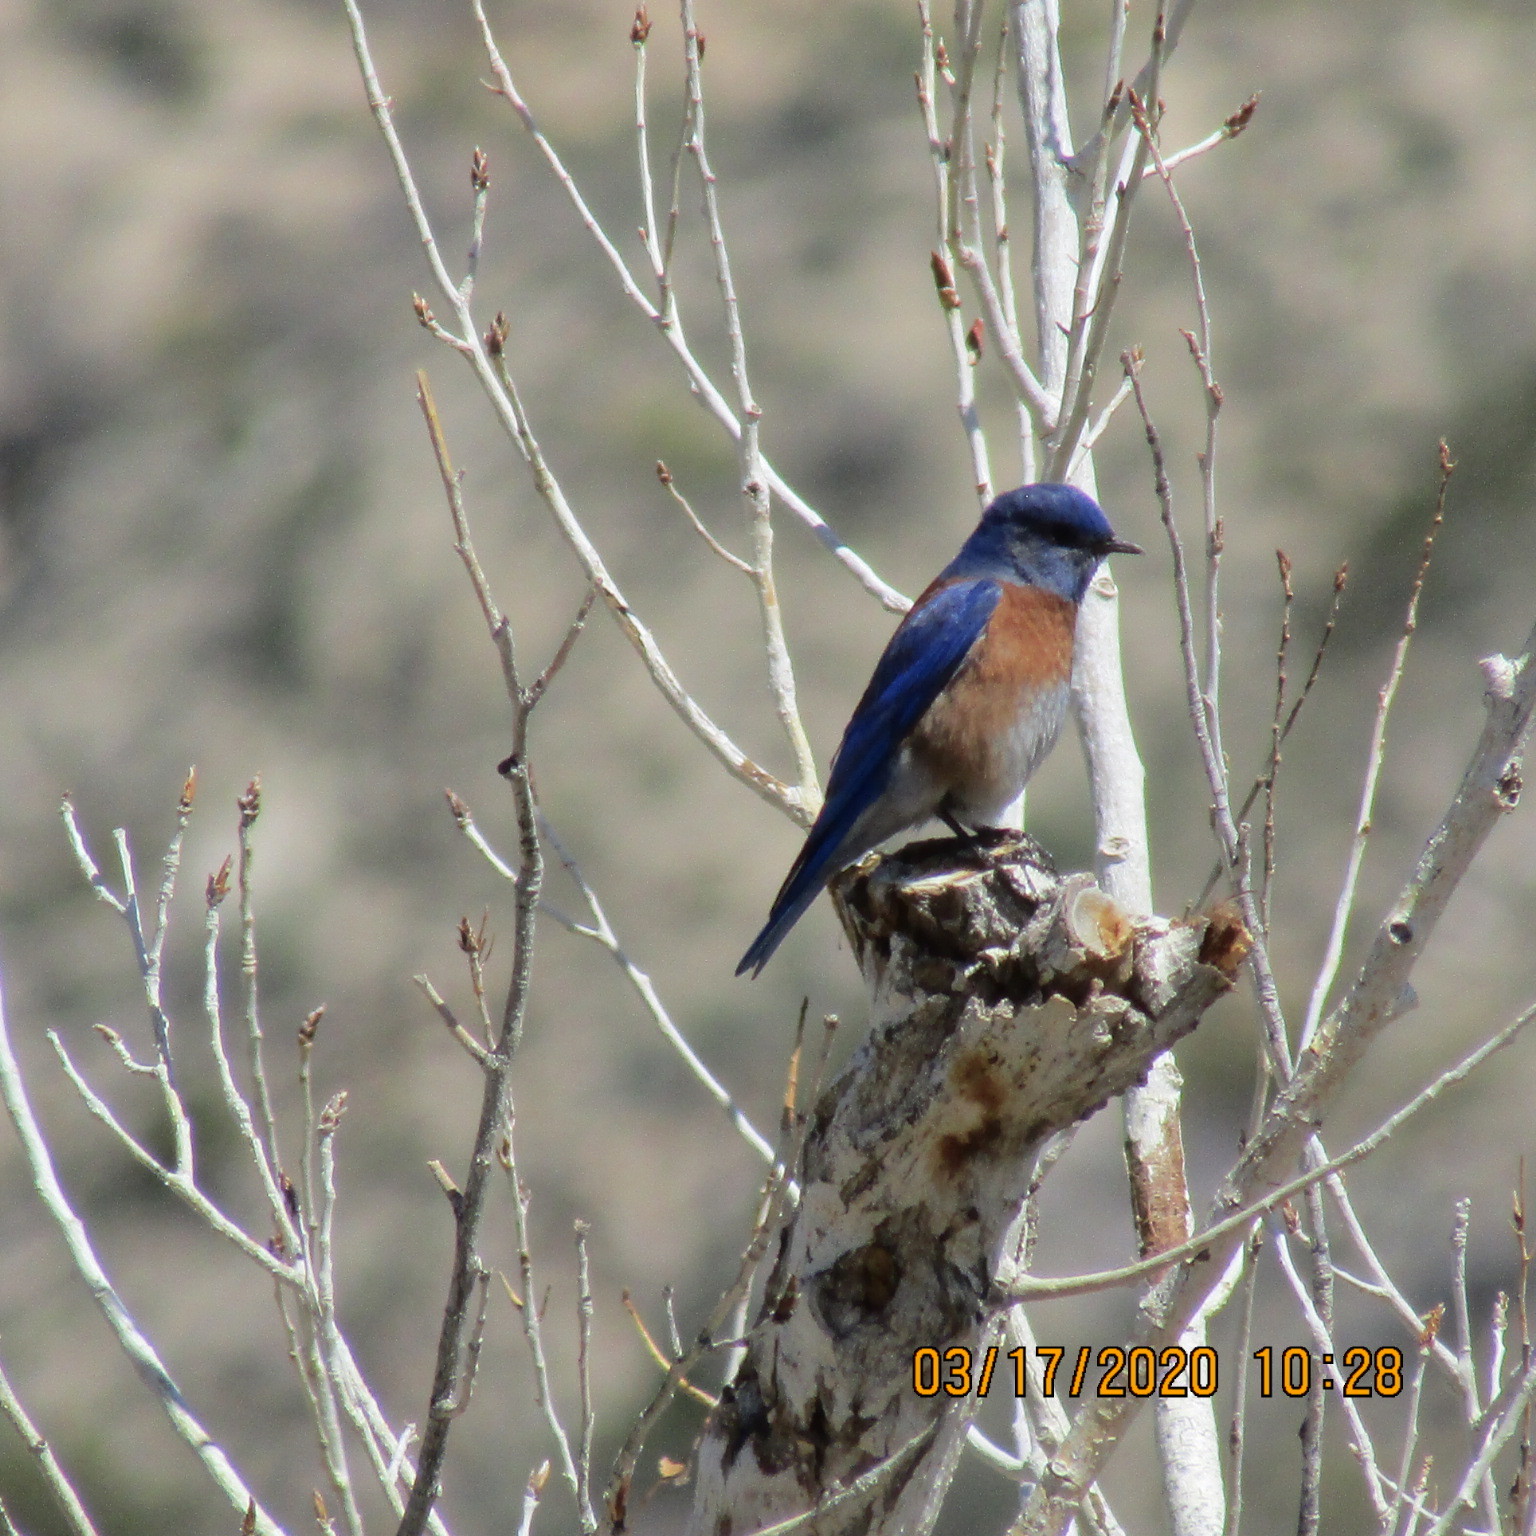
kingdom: Animalia
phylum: Chordata
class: Aves
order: Passeriformes
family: Turdidae
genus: Sialia
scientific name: Sialia mexicana
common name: Western bluebird
